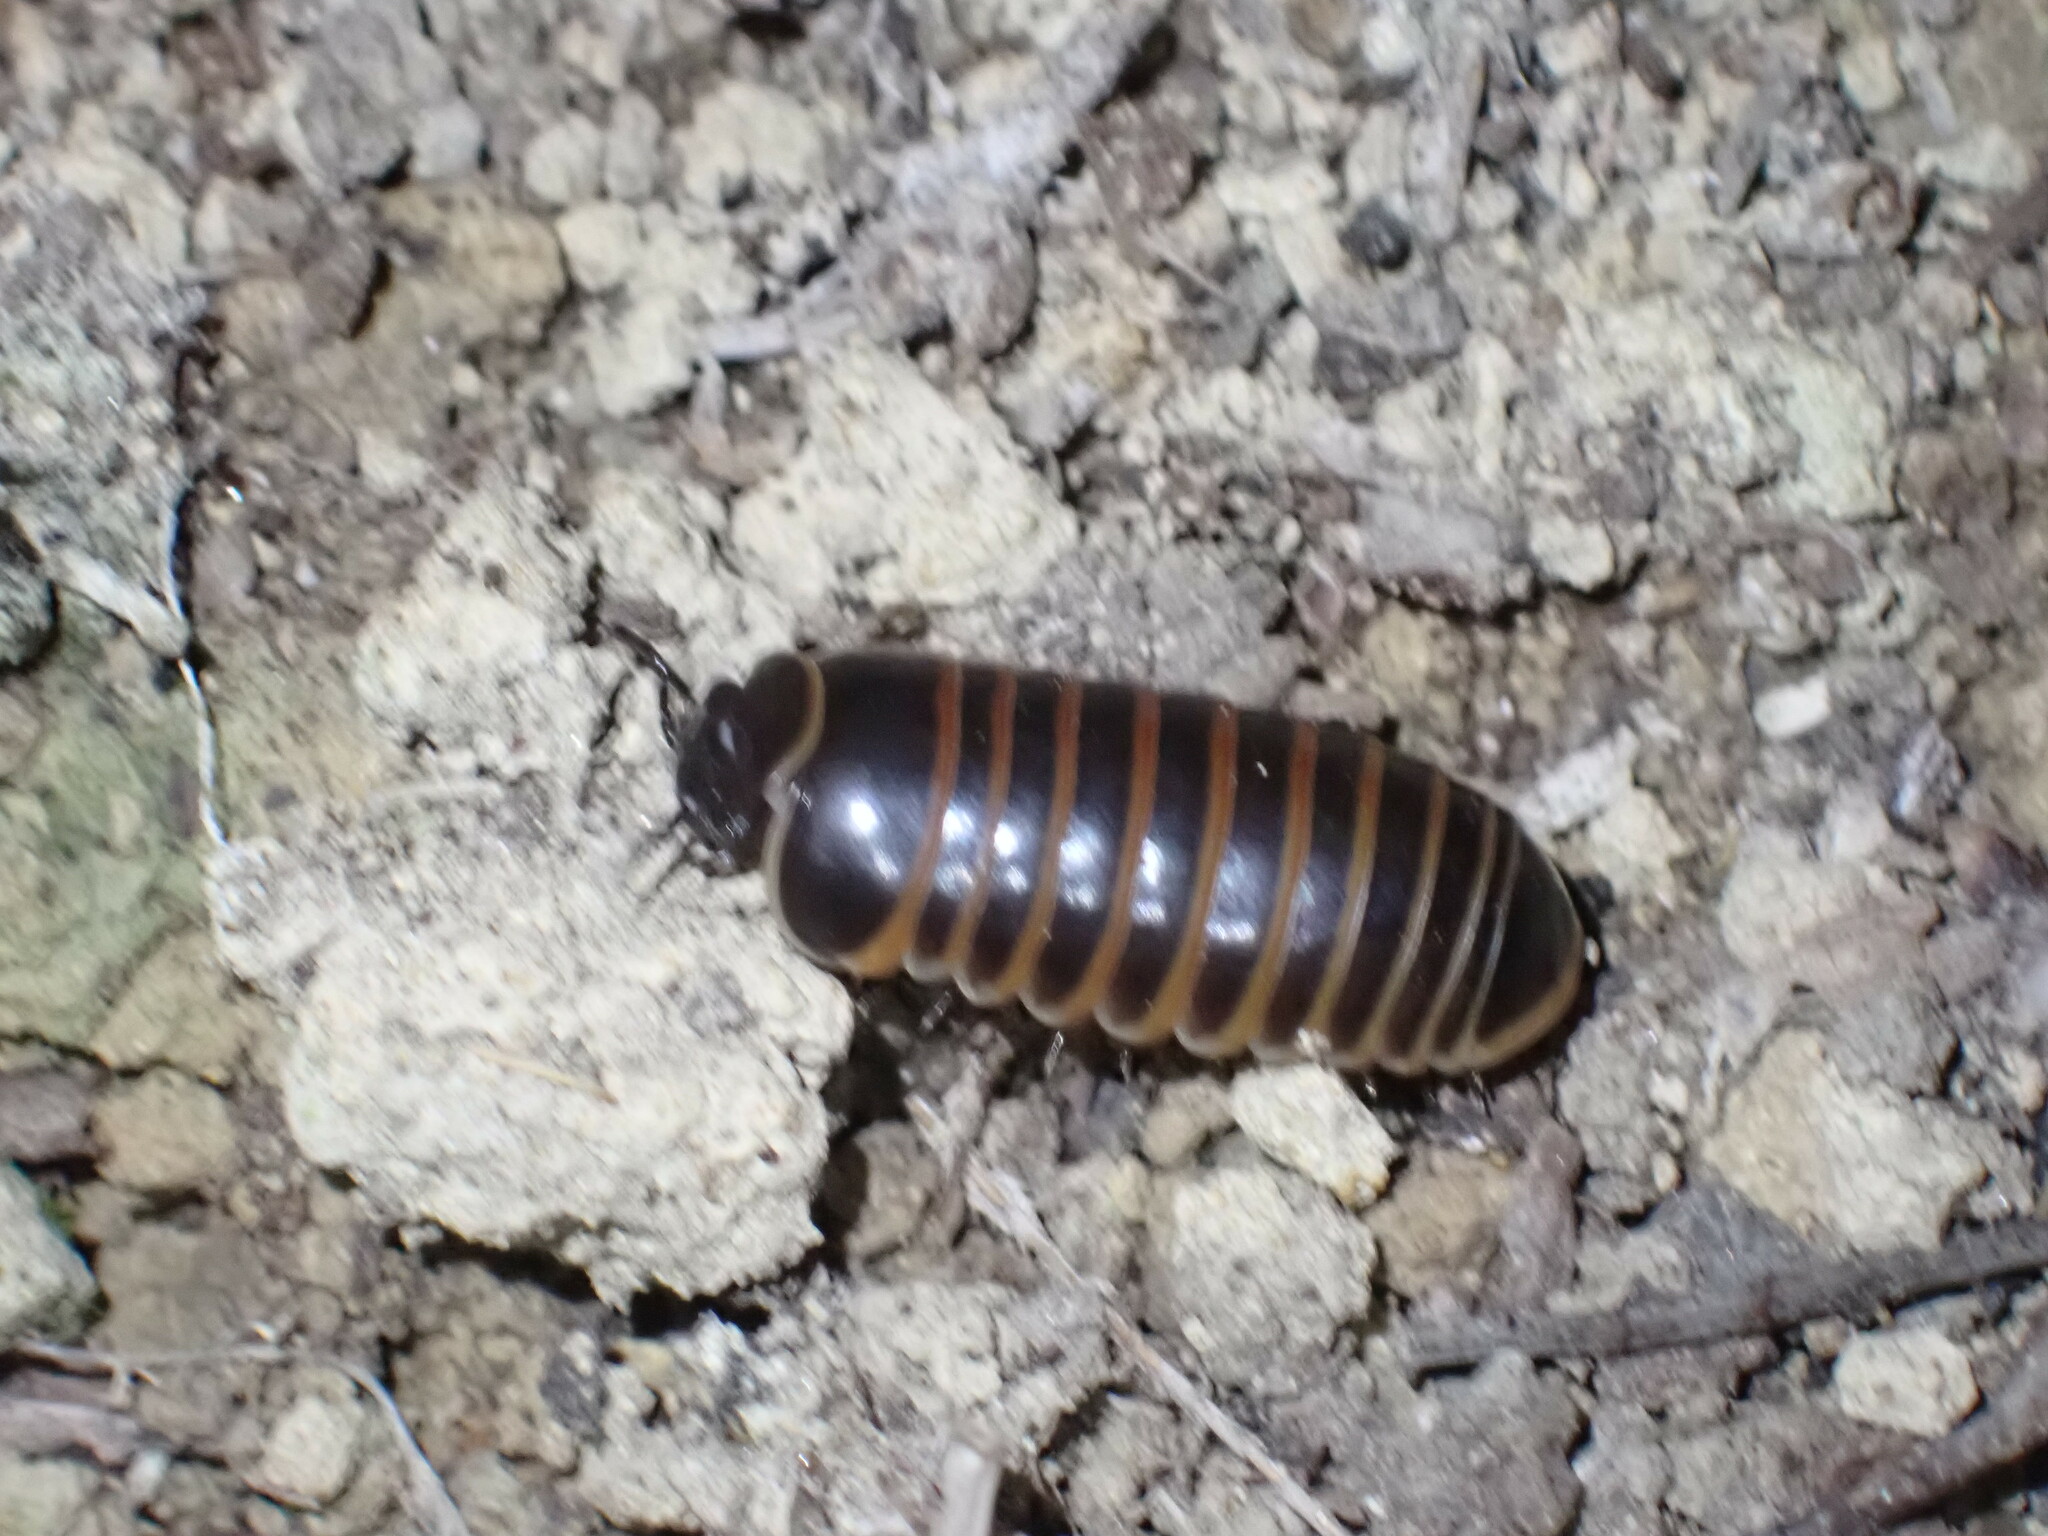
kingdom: Animalia
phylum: Arthropoda
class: Diplopoda
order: Glomerida
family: Glomeridae
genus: Glomeris
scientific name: Glomeris marginata
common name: Bordered pill millipede
